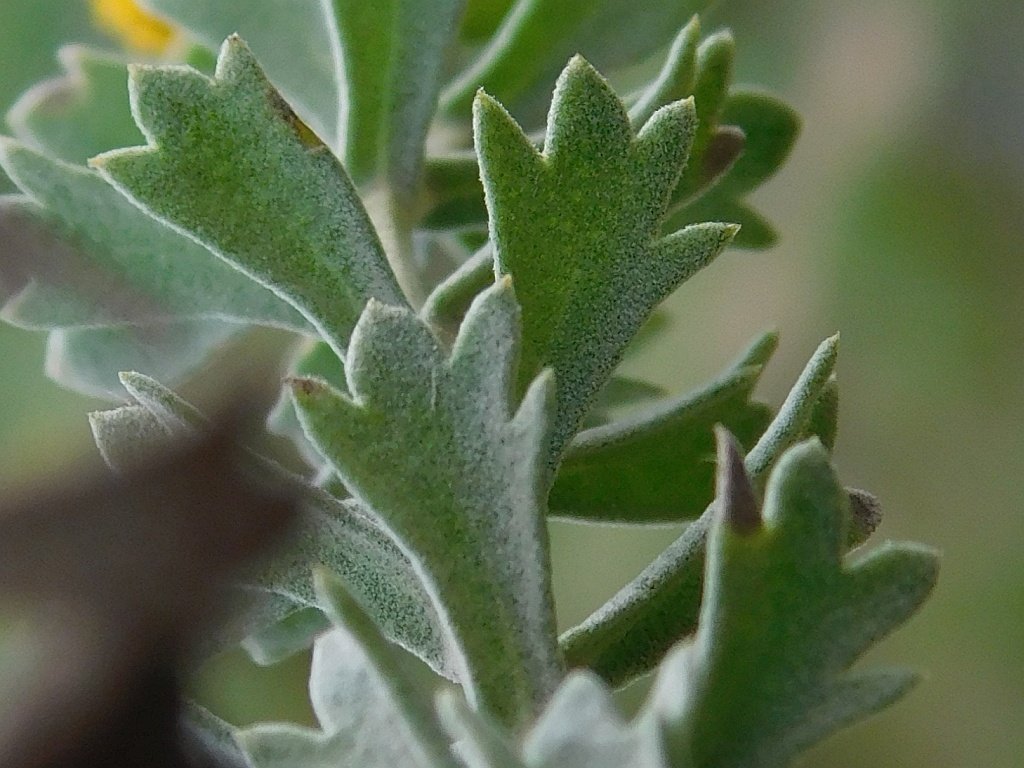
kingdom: Plantae
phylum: Tracheophyta
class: Magnoliopsida
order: Asterales
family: Asteraceae
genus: Athanasia
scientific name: Athanasia trifurcata
